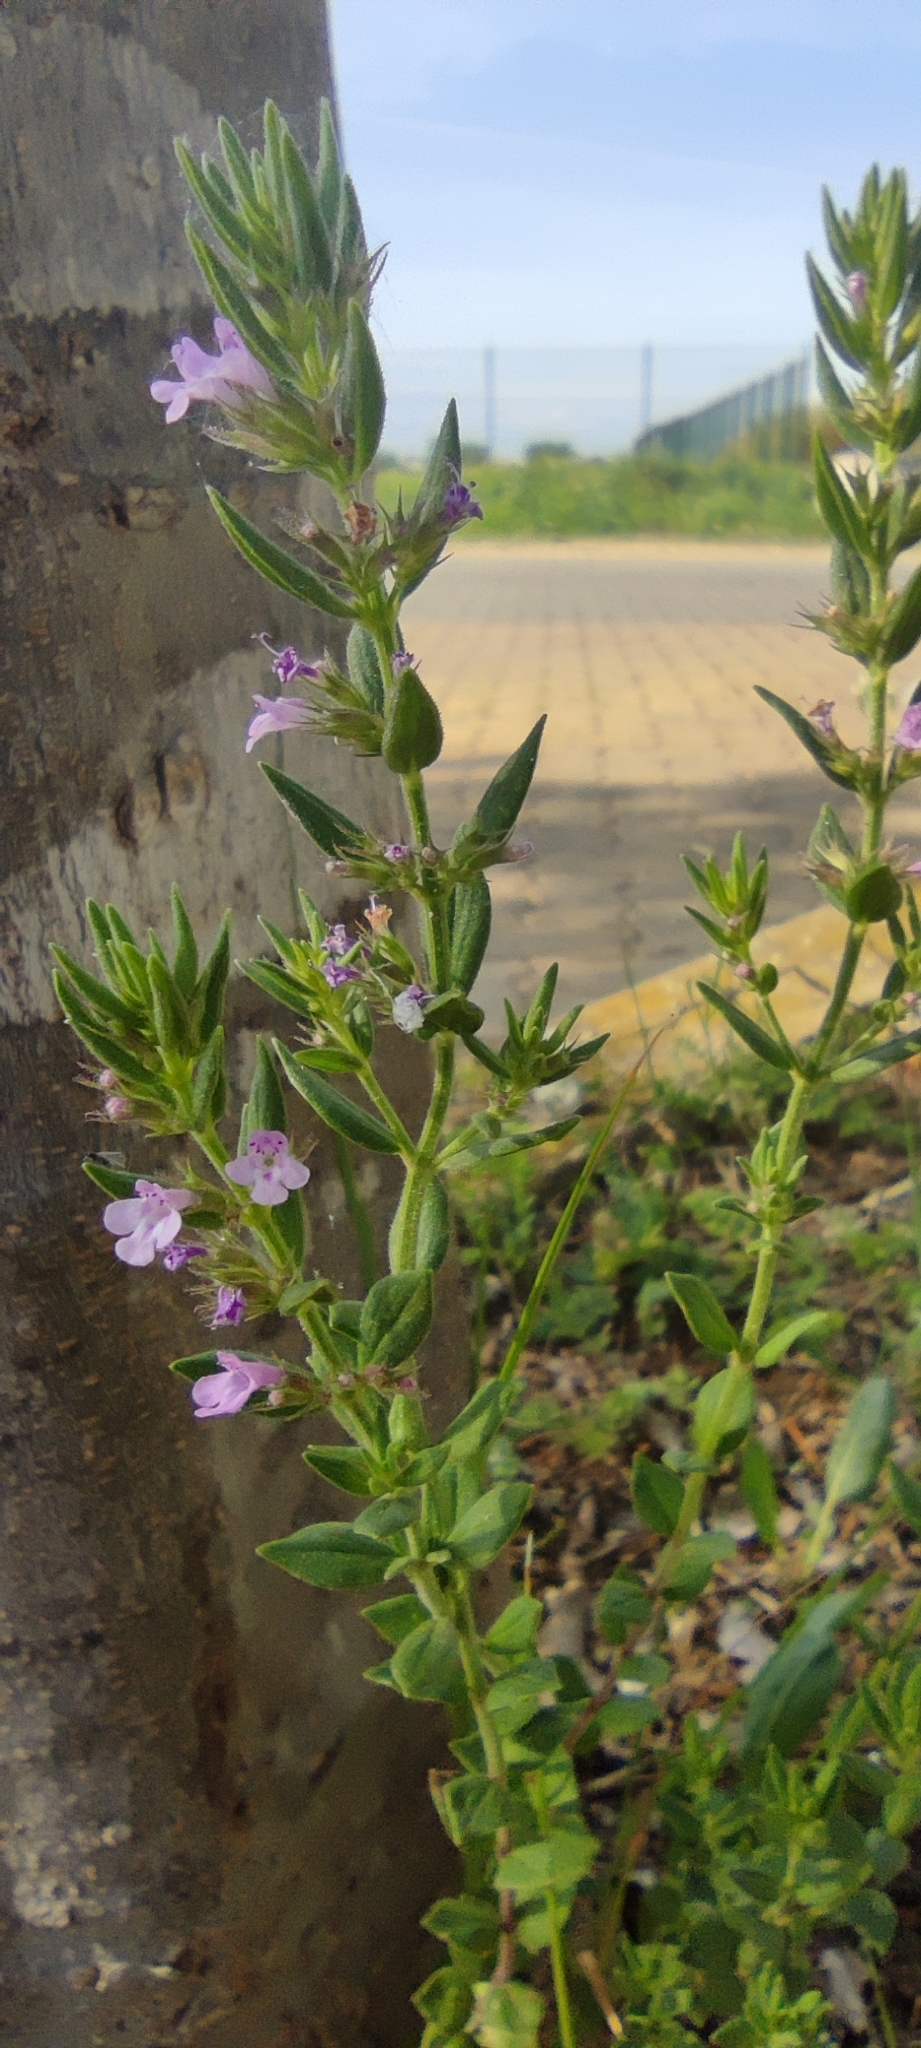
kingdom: Plantae
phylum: Tracheophyta
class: Magnoliopsida
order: Lamiales
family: Lamiaceae
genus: Micromeria
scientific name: Micromeria graeca
